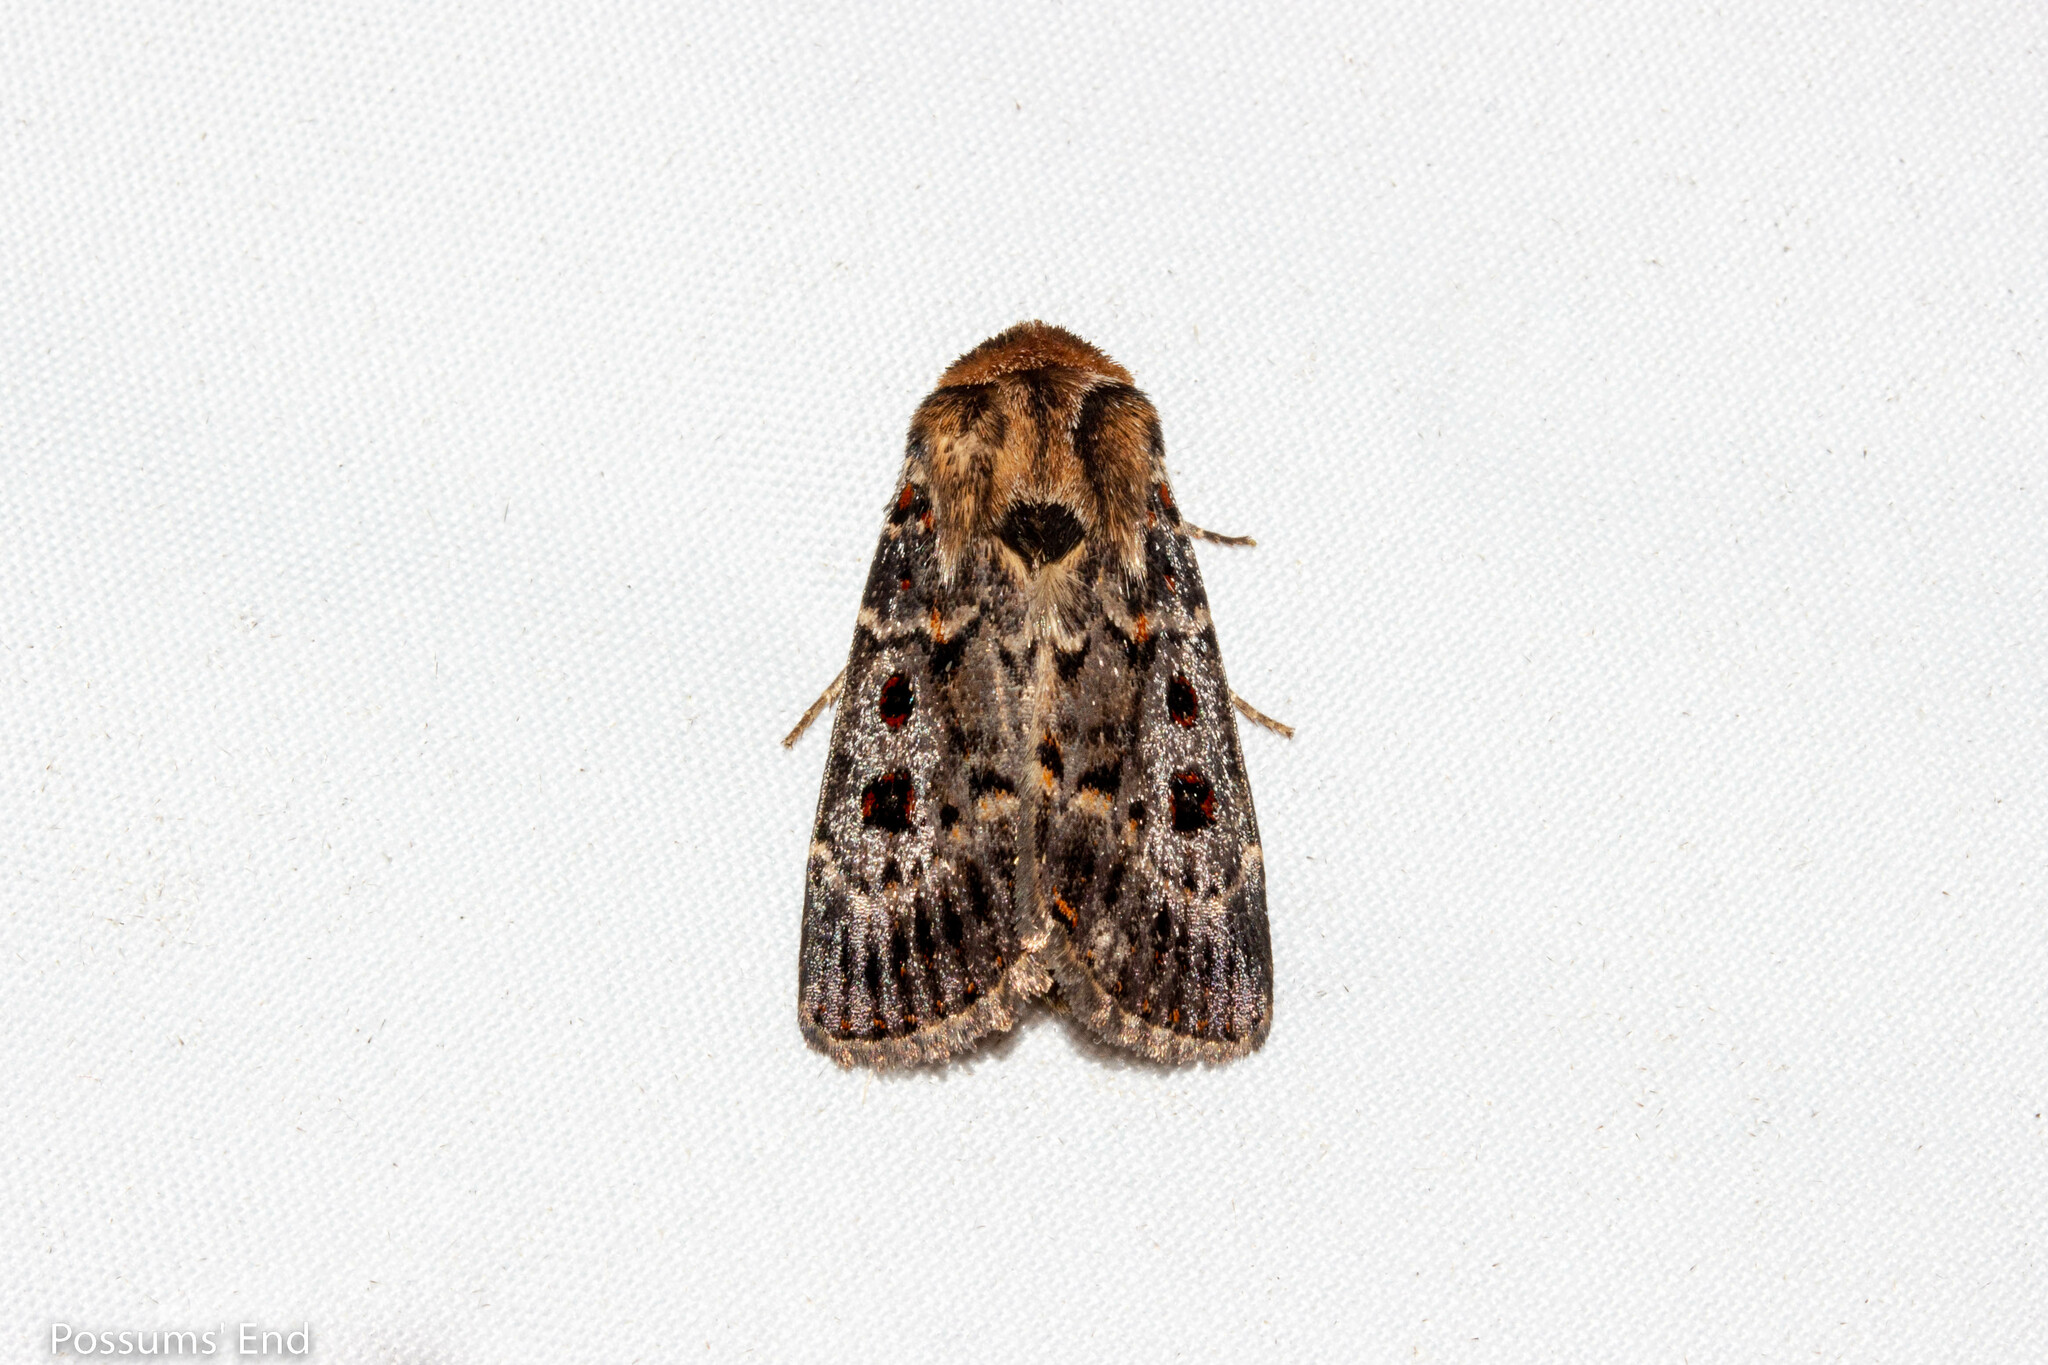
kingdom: Animalia
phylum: Arthropoda
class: Insecta
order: Lepidoptera
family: Noctuidae
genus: Proteuxoa
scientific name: Proteuxoa sanguinipuncta
